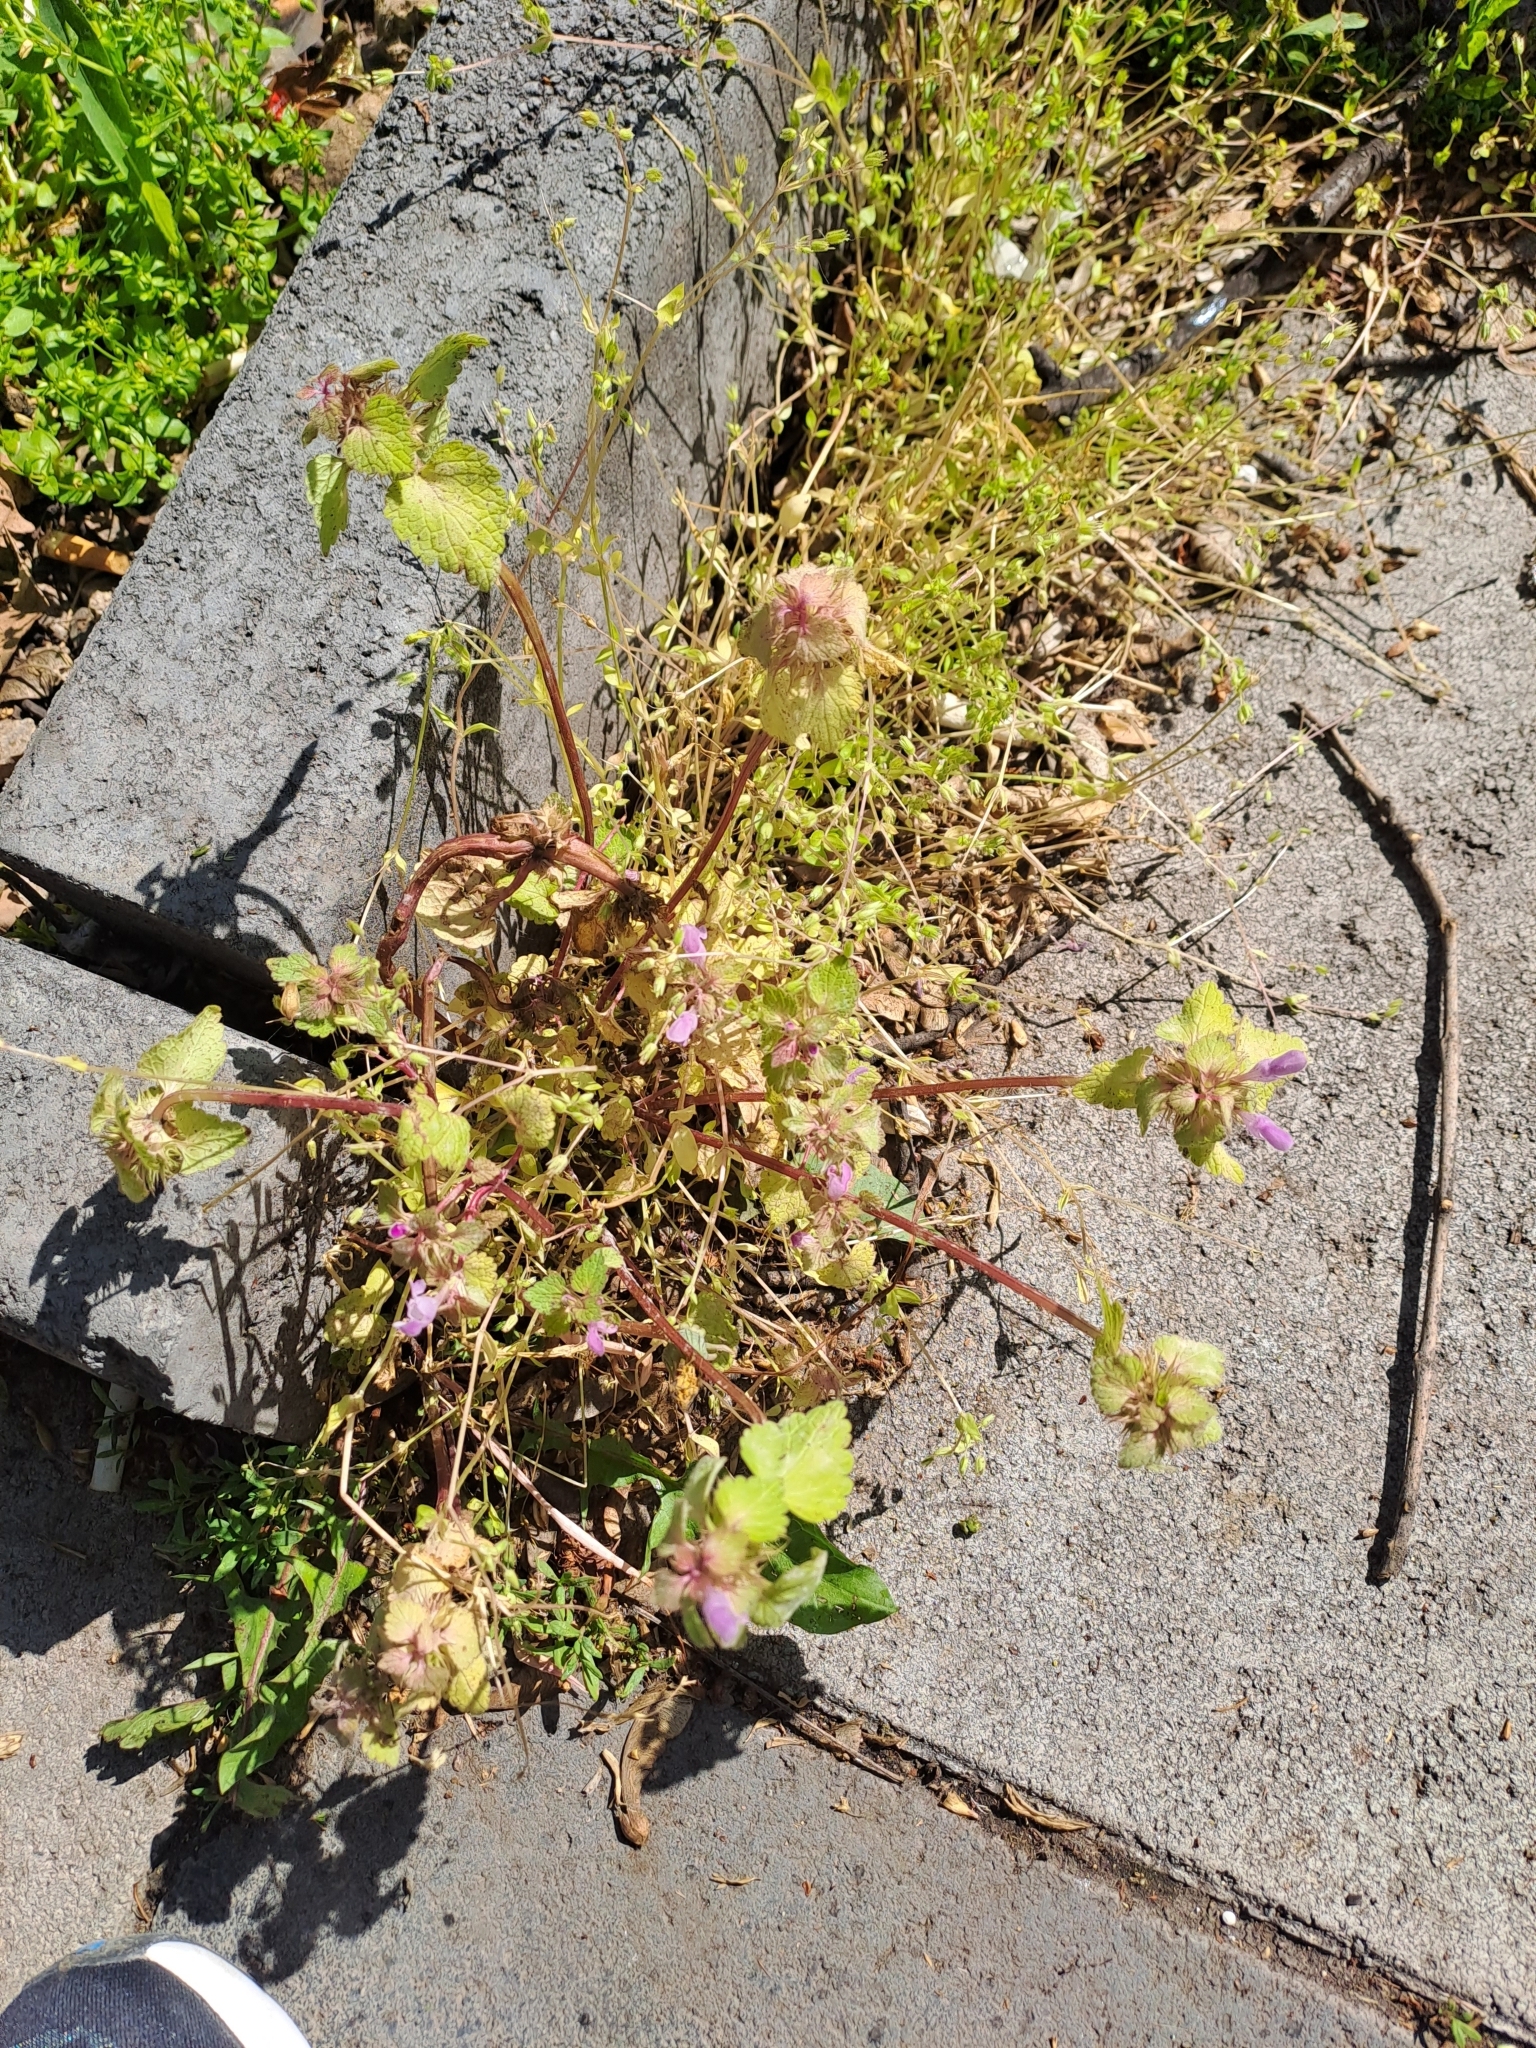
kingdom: Plantae
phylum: Tracheophyta
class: Magnoliopsida
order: Lamiales
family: Lamiaceae
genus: Lamium
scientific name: Lamium purpureum
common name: Red dead-nettle
